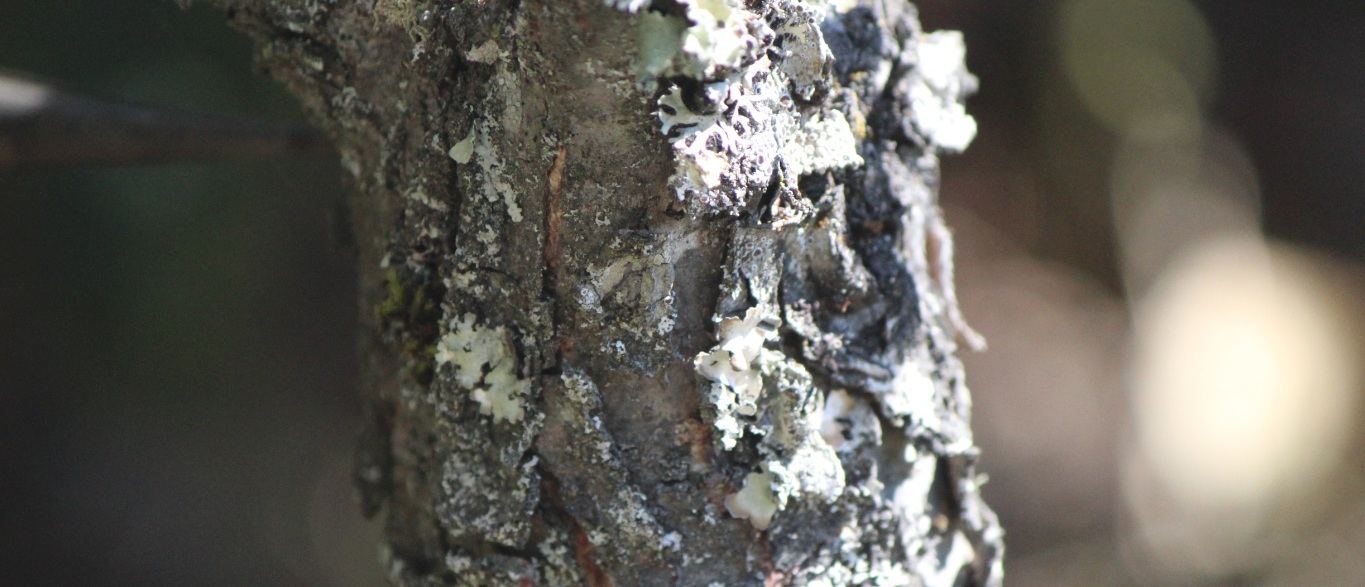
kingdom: Plantae
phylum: Tracheophyta
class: Magnoliopsida
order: Fagales
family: Fagaceae
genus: Quercus
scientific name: Quercus greggii
